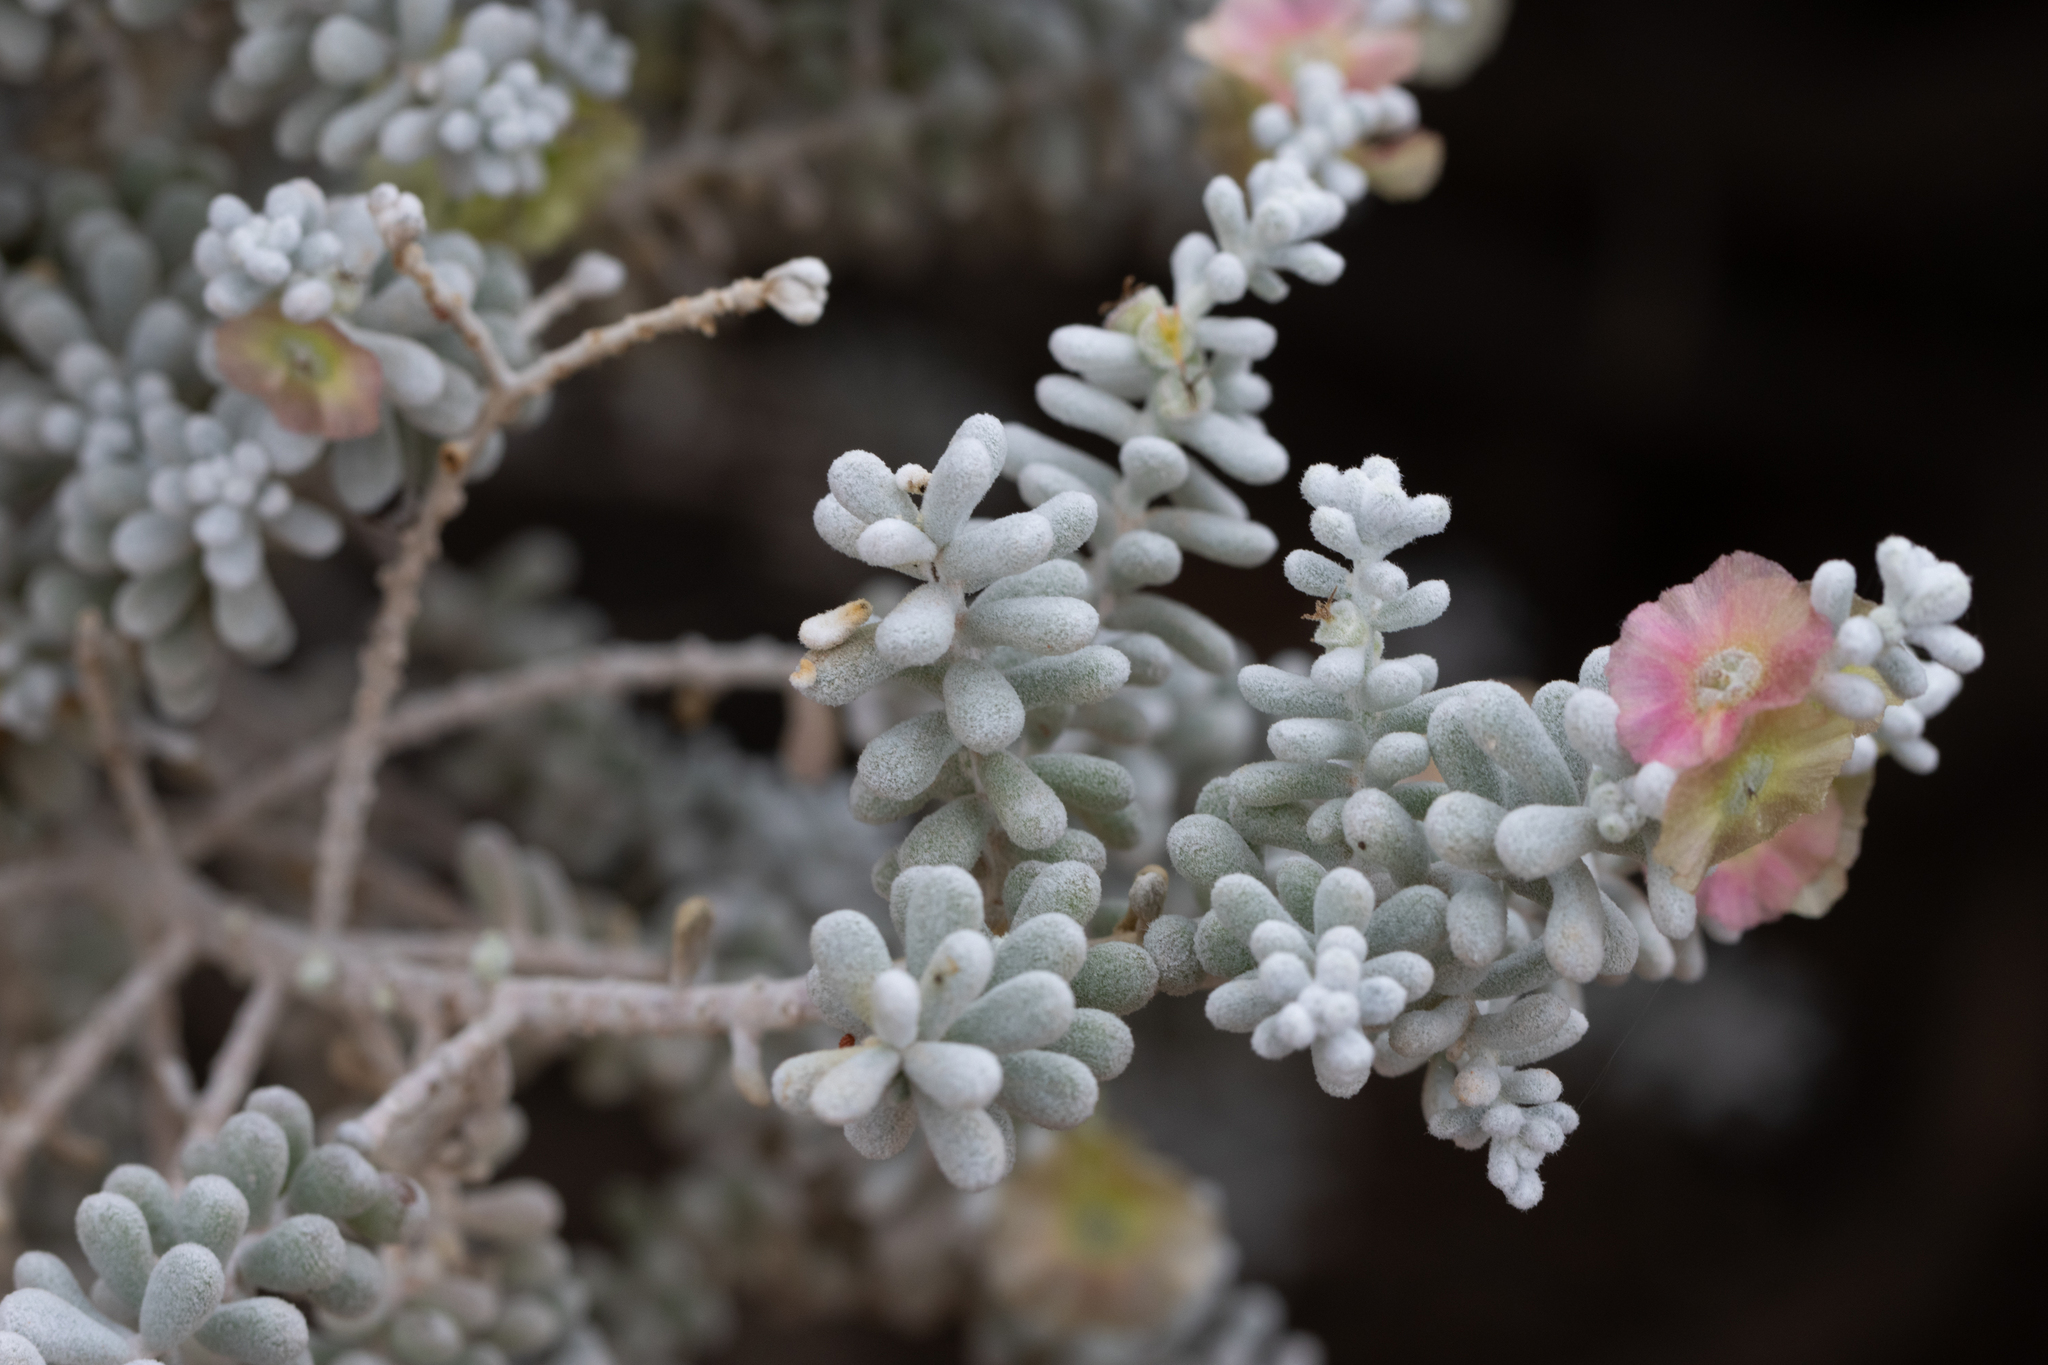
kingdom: Plantae
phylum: Tracheophyta
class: Magnoliopsida
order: Caryophyllales
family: Amaranthaceae
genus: Maireana
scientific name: Maireana sedifolia
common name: Hoary bluebush
